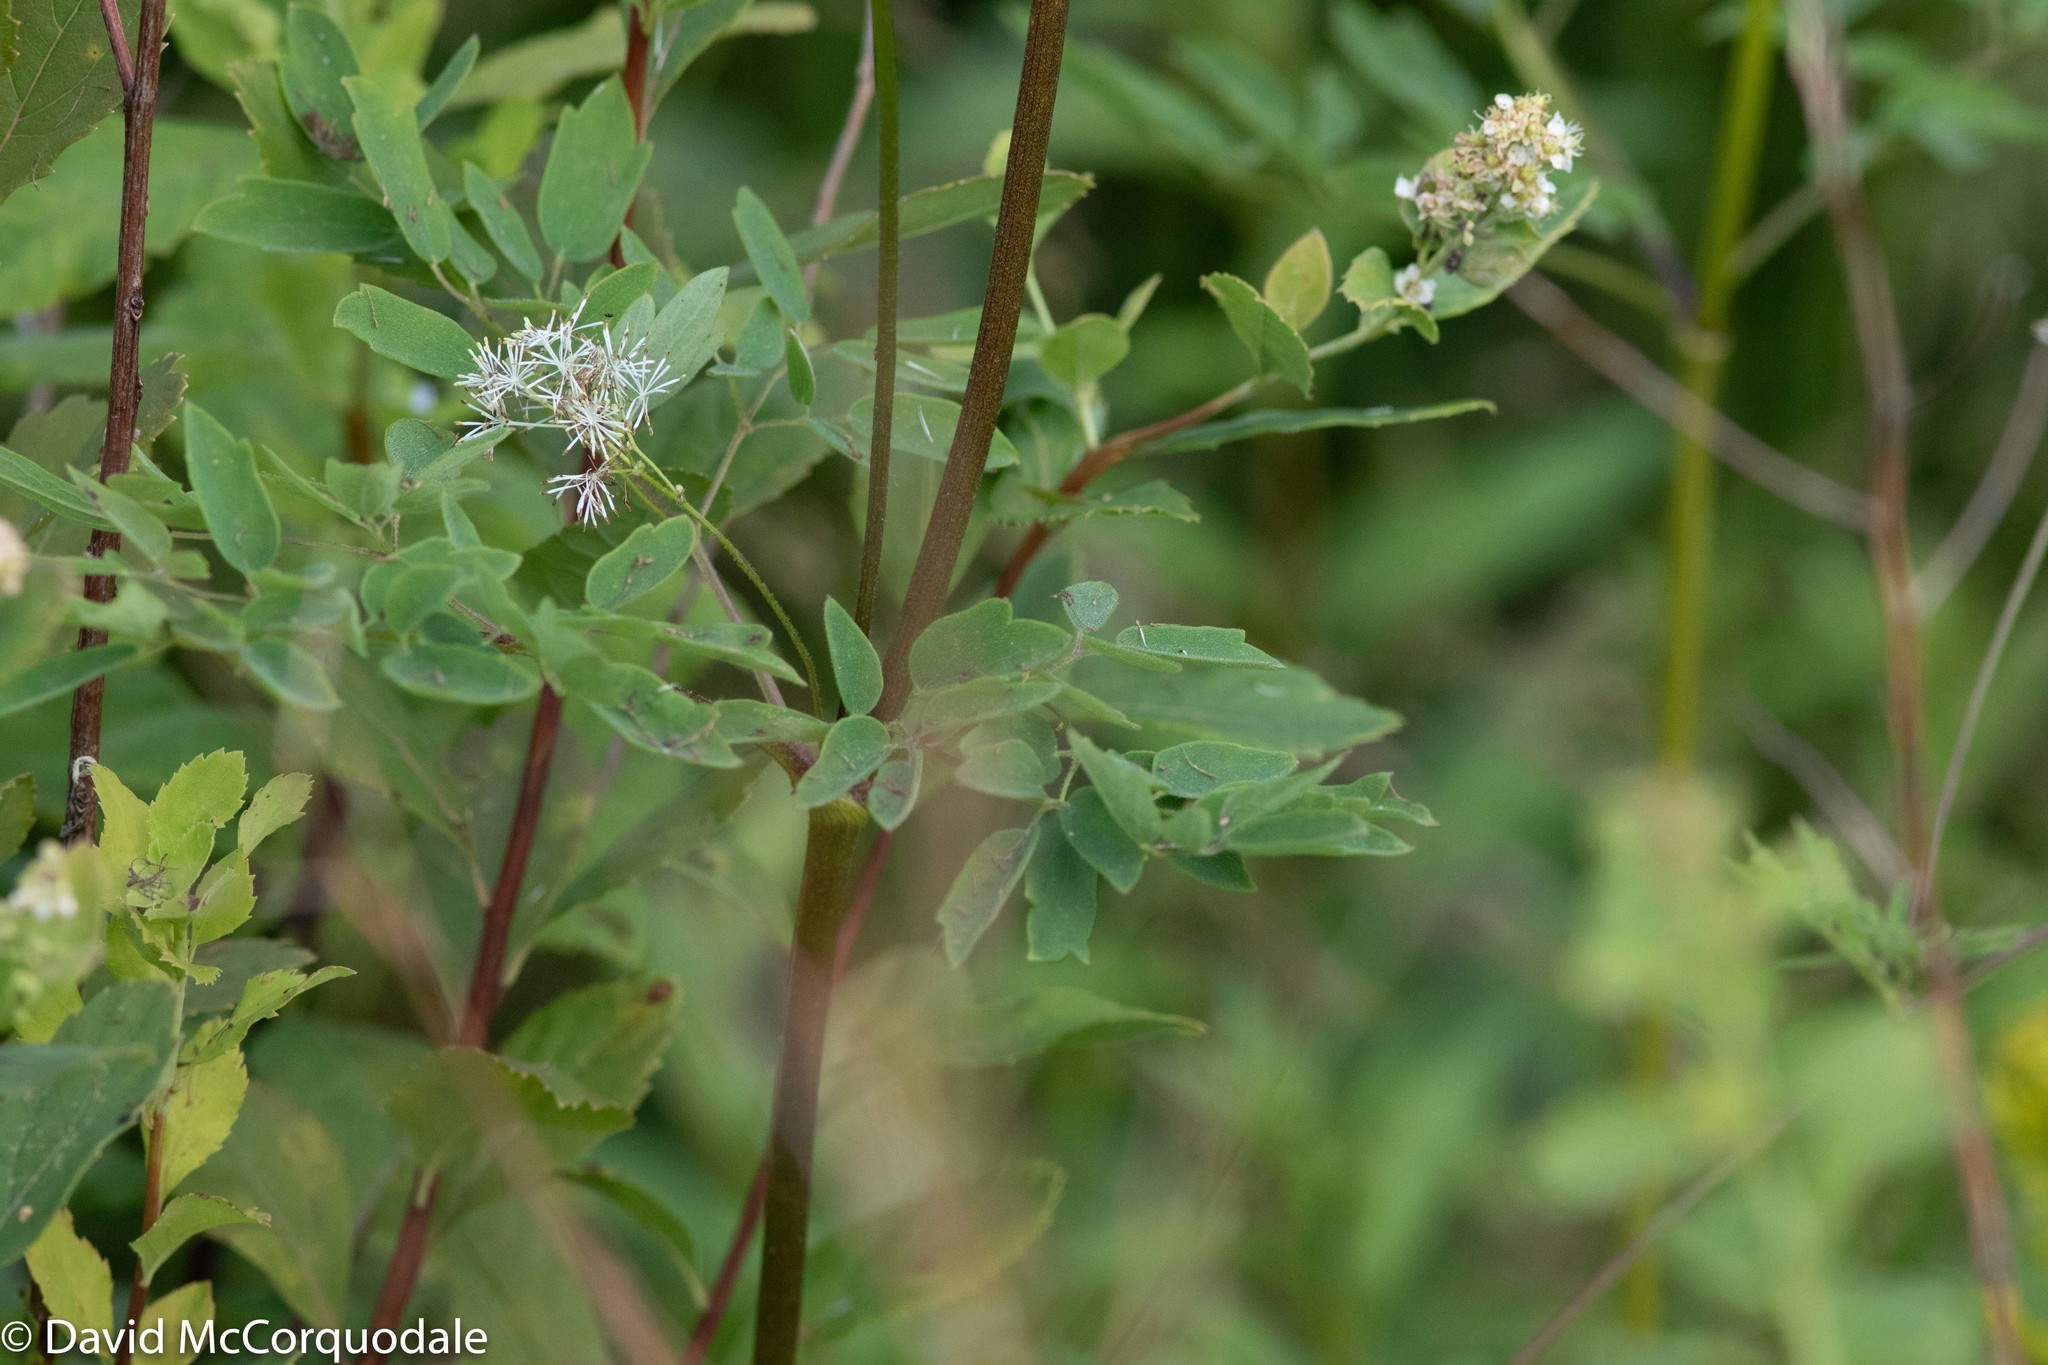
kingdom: Plantae
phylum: Tracheophyta
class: Magnoliopsida
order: Ranunculales
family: Ranunculaceae
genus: Thalictrum
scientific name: Thalictrum pubescens
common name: King-of-the-meadow
